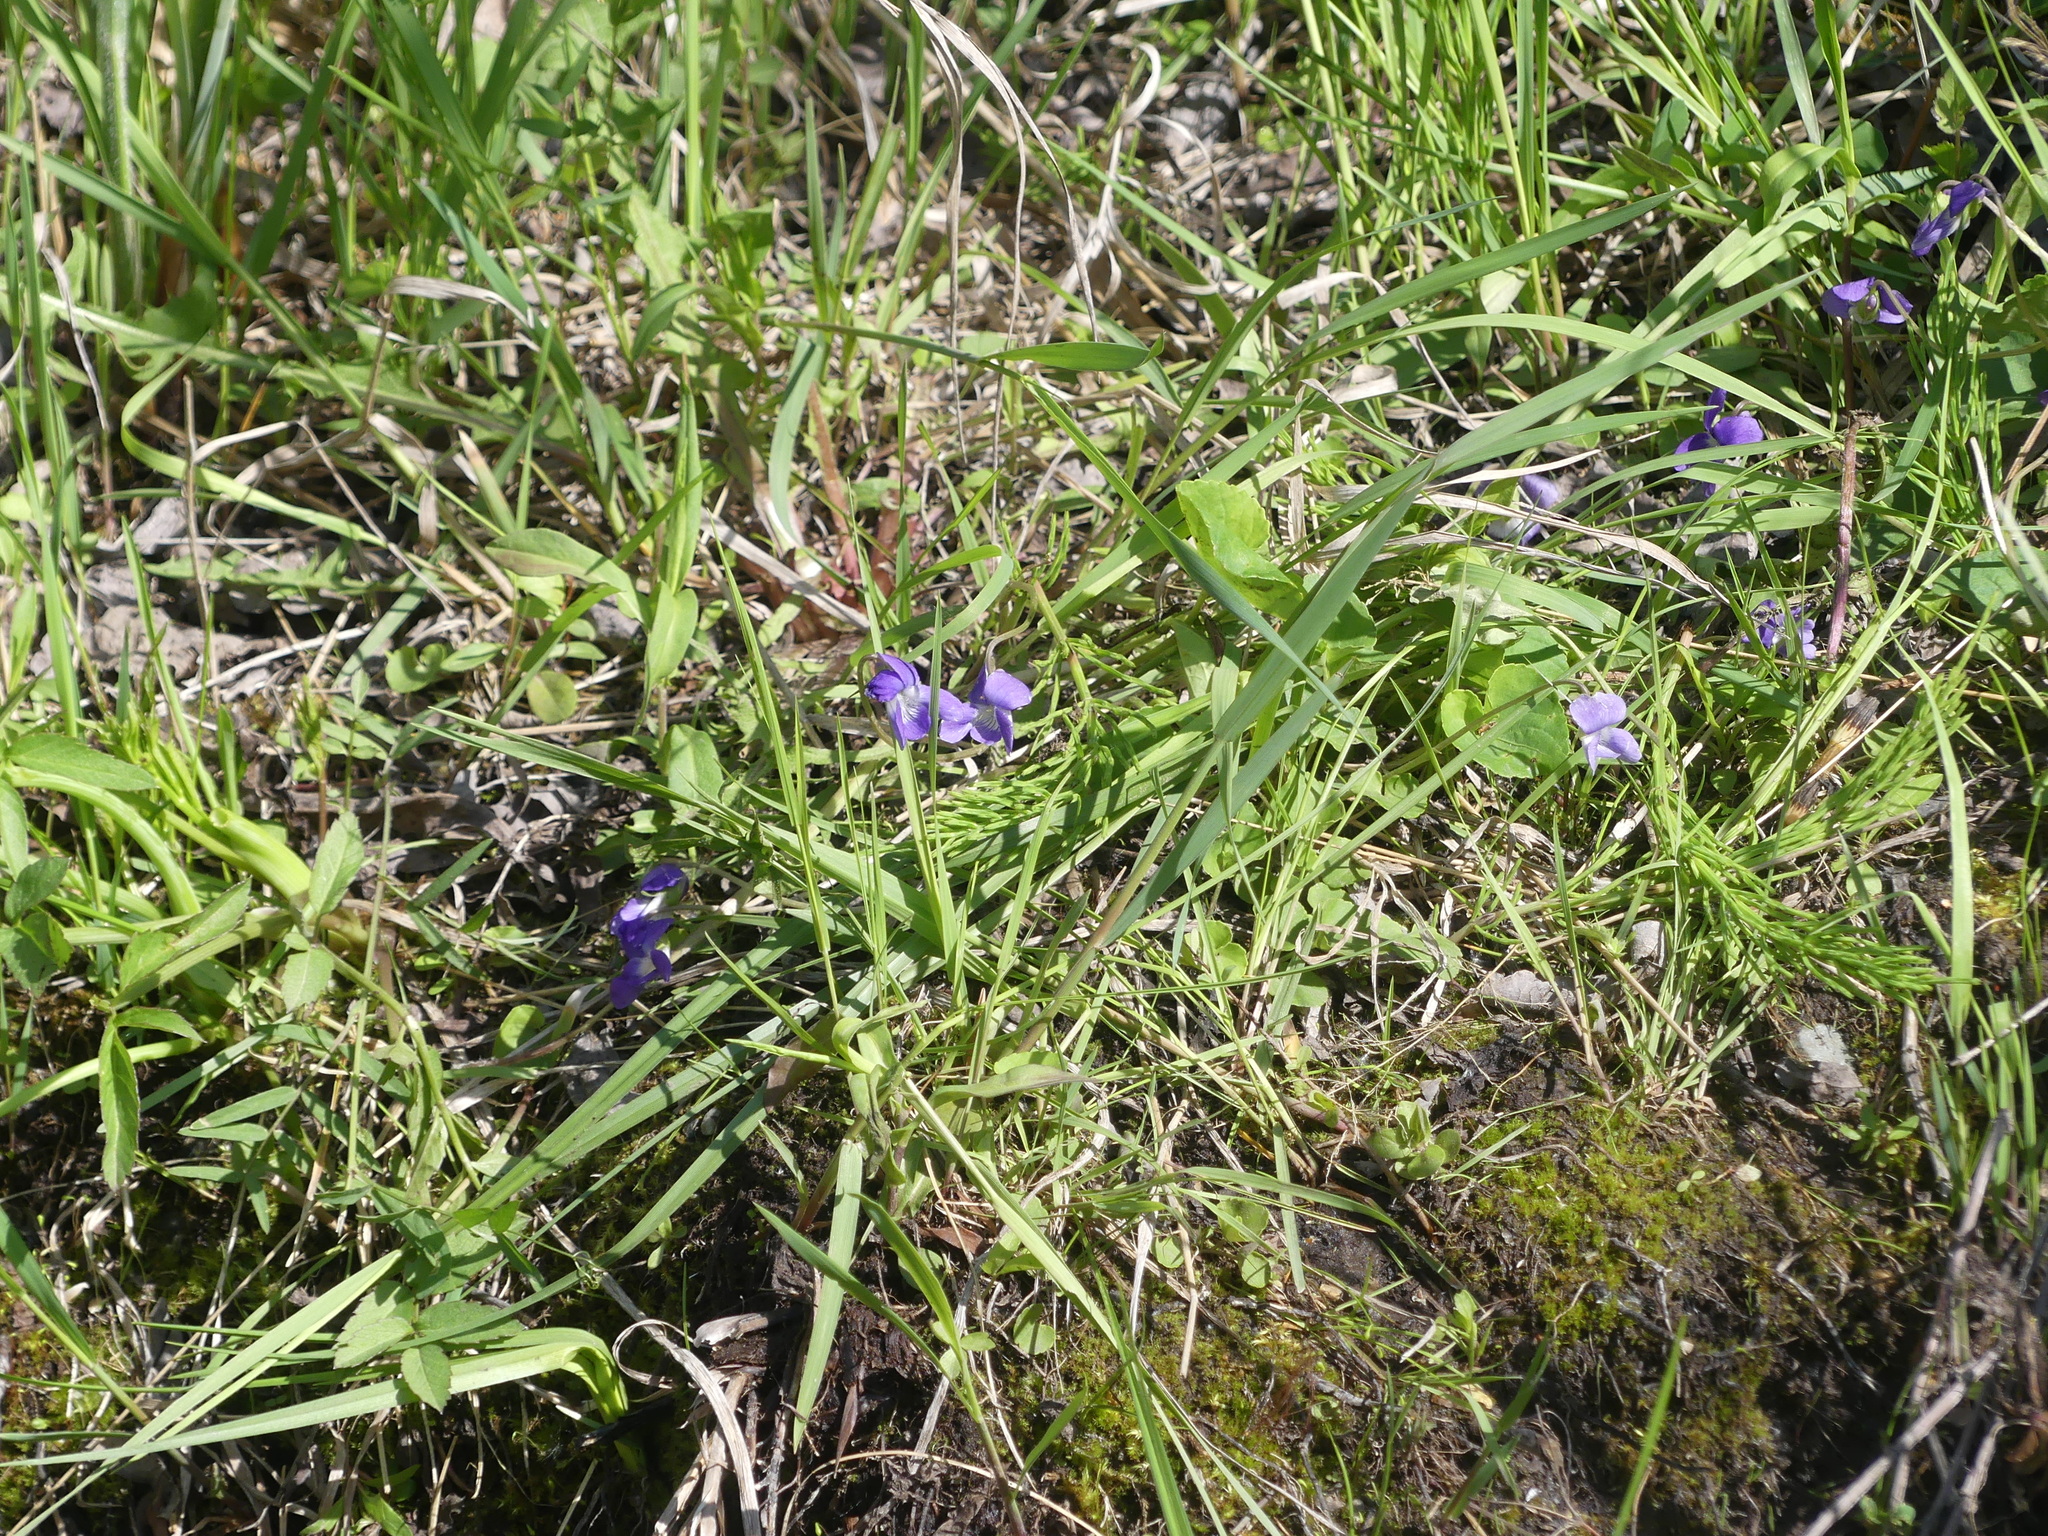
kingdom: Plantae
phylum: Tracheophyta
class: Magnoliopsida
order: Malpighiales
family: Violaceae
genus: Viola
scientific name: Viola adunca
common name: Sand violet
